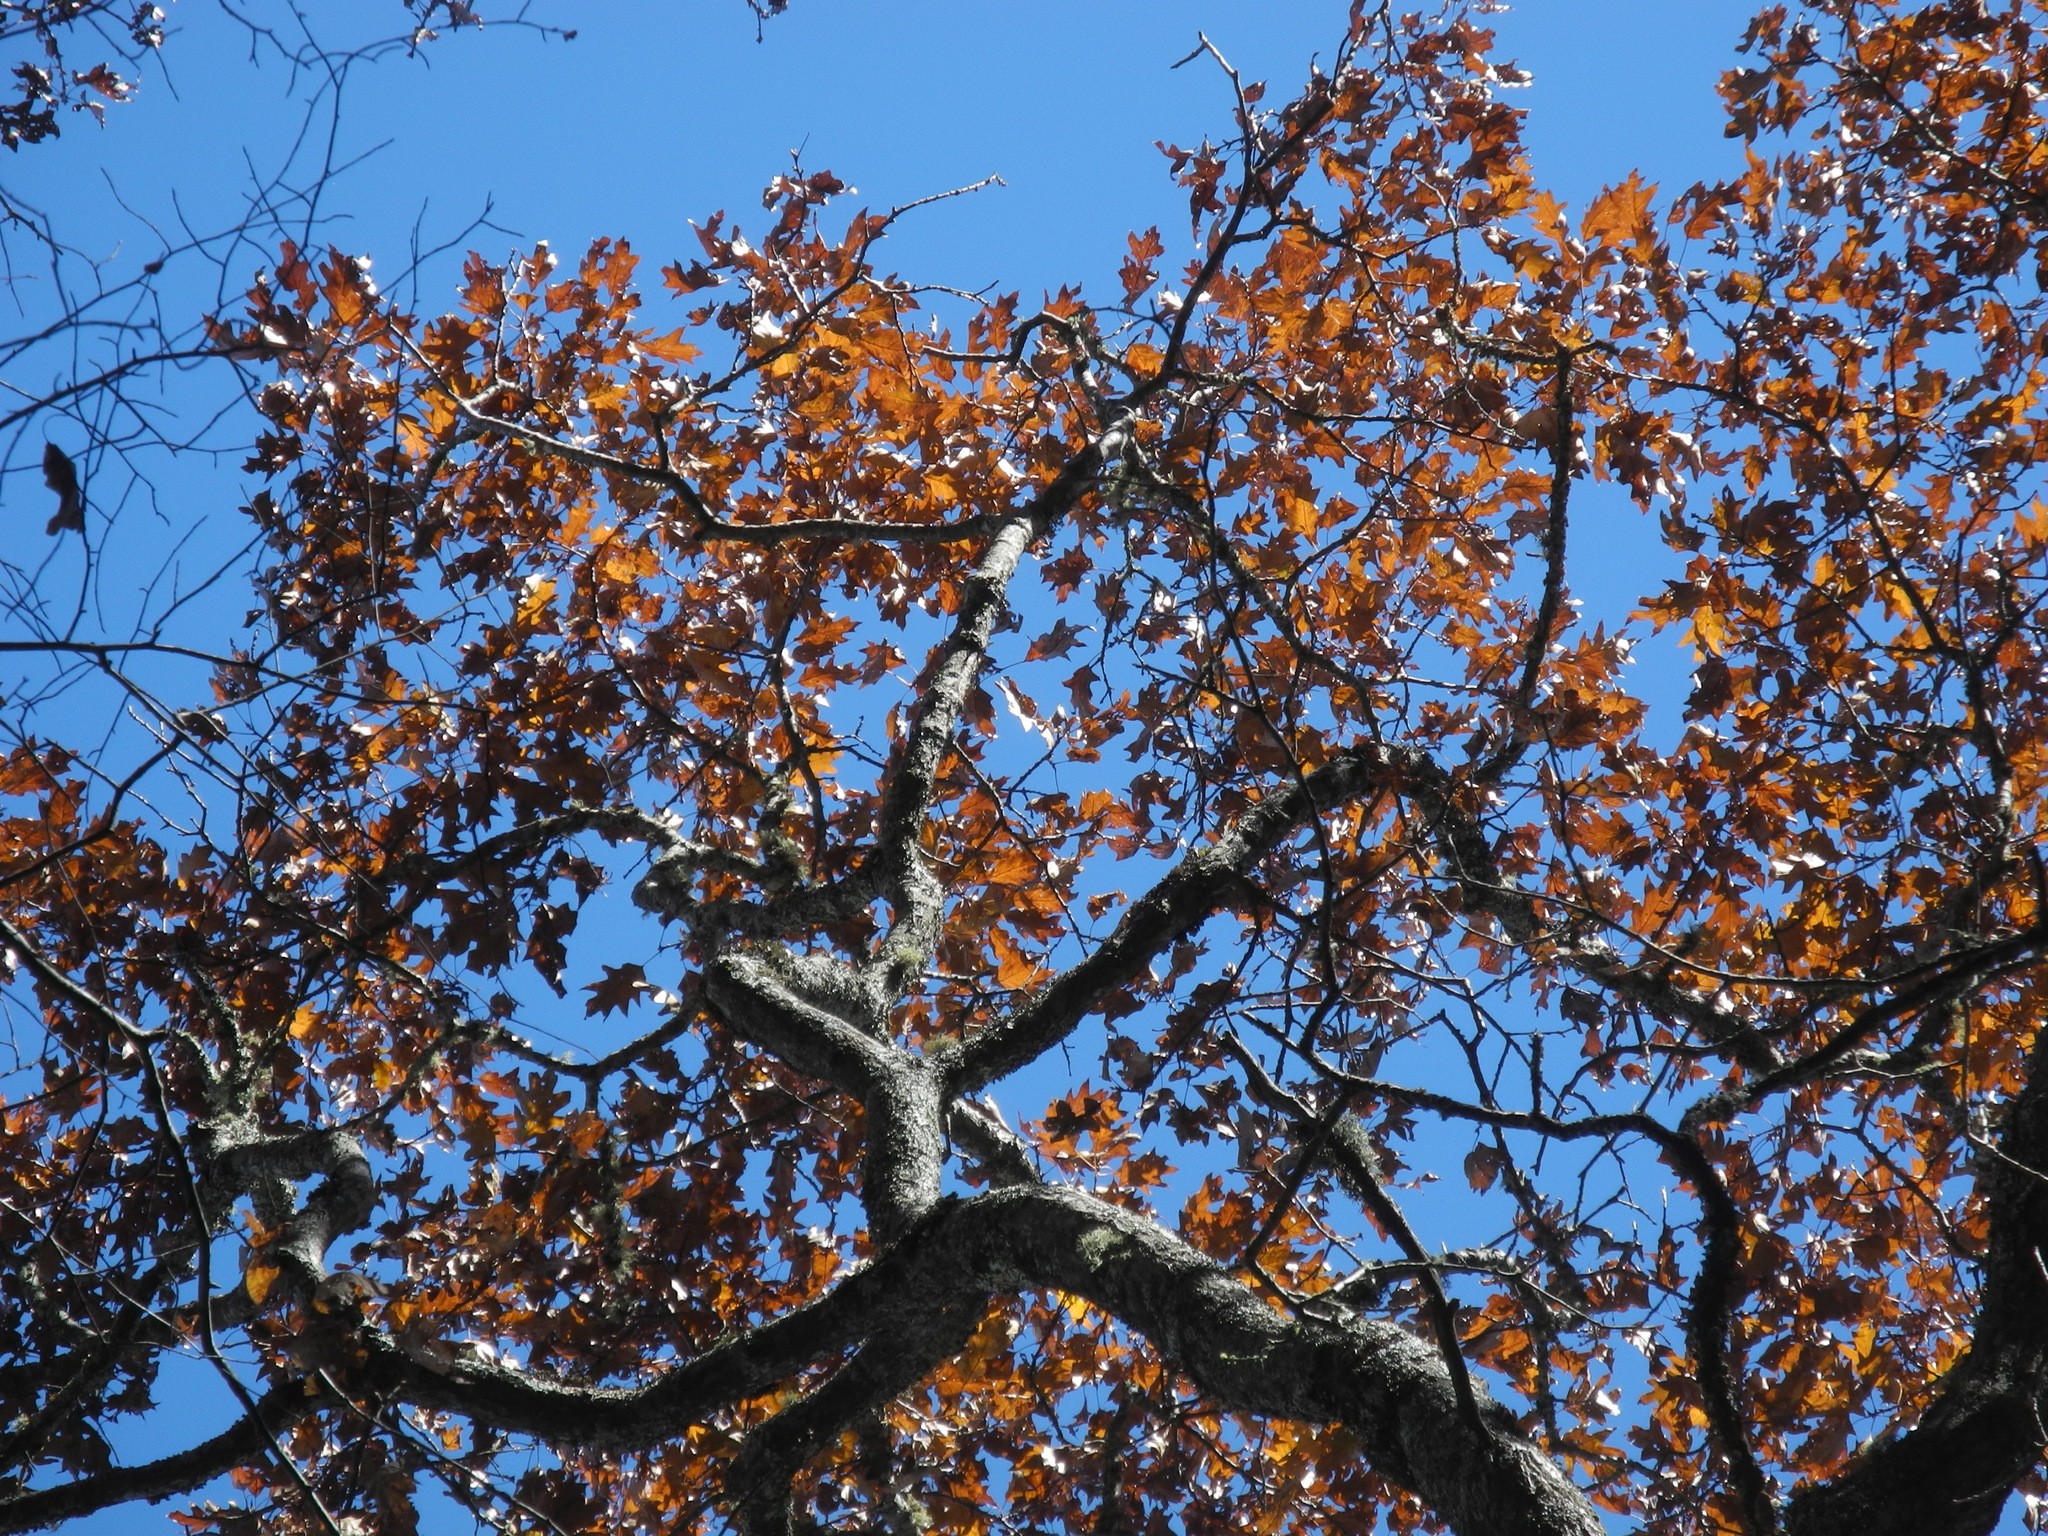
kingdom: Plantae
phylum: Tracheophyta
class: Magnoliopsida
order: Fagales
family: Fagaceae
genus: Quercus
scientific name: Quercus rubra
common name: Red oak
